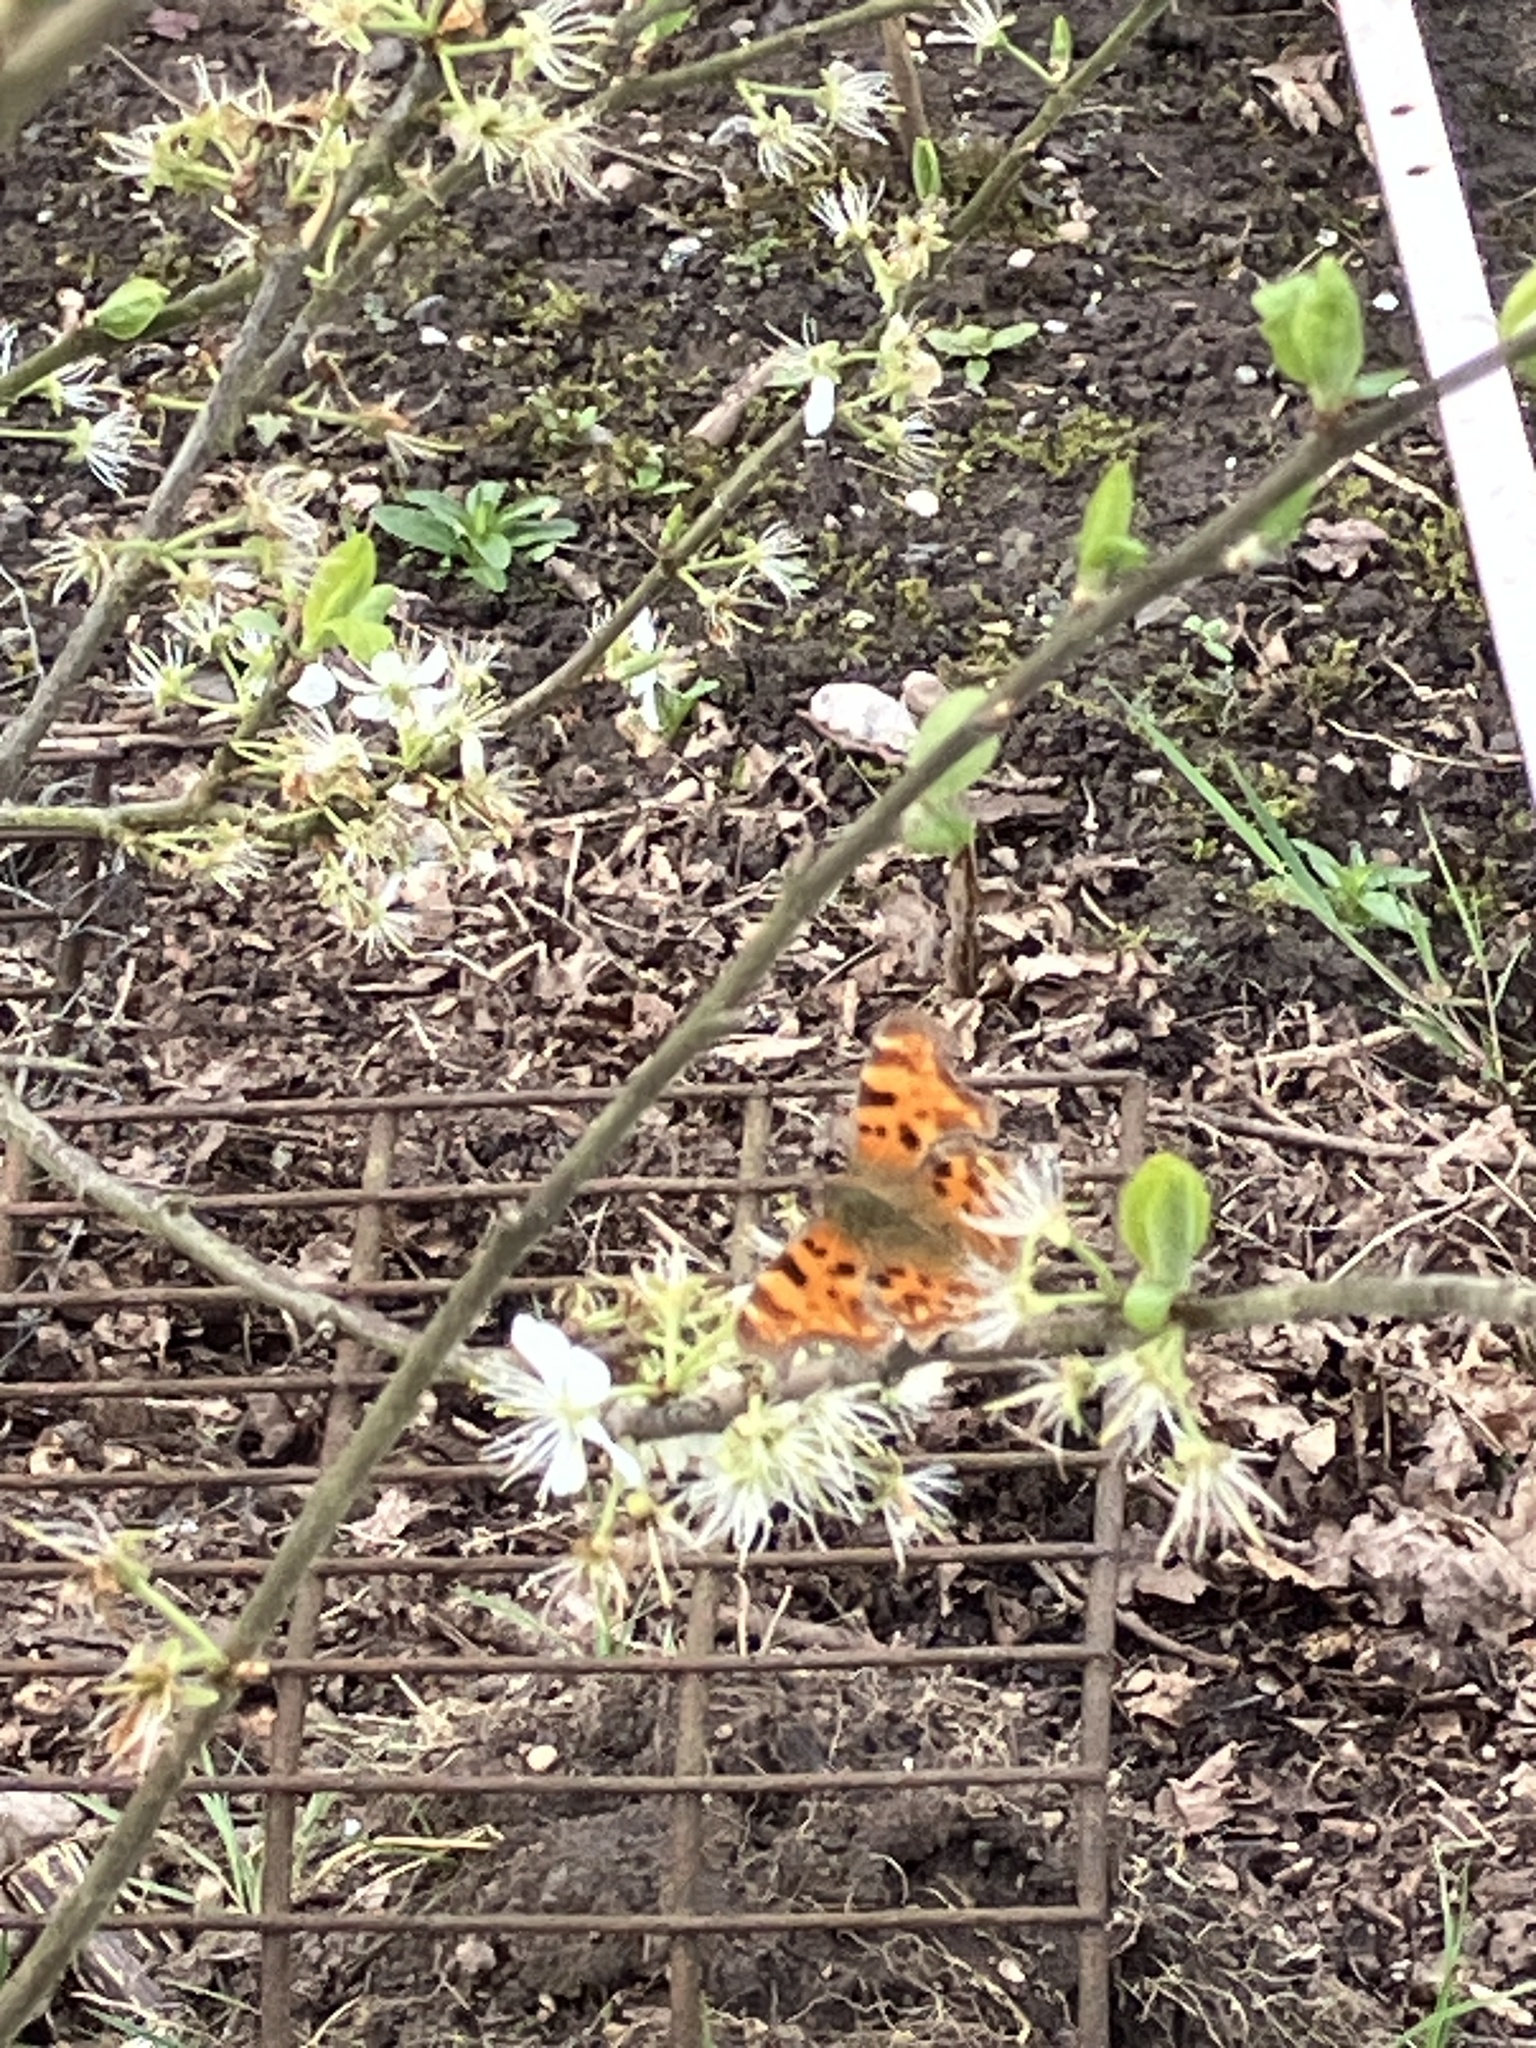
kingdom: Animalia
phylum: Arthropoda
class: Insecta
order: Lepidoptera
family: Nymphalidae
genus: Polygonia
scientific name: Polygonia c-album
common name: Comma
